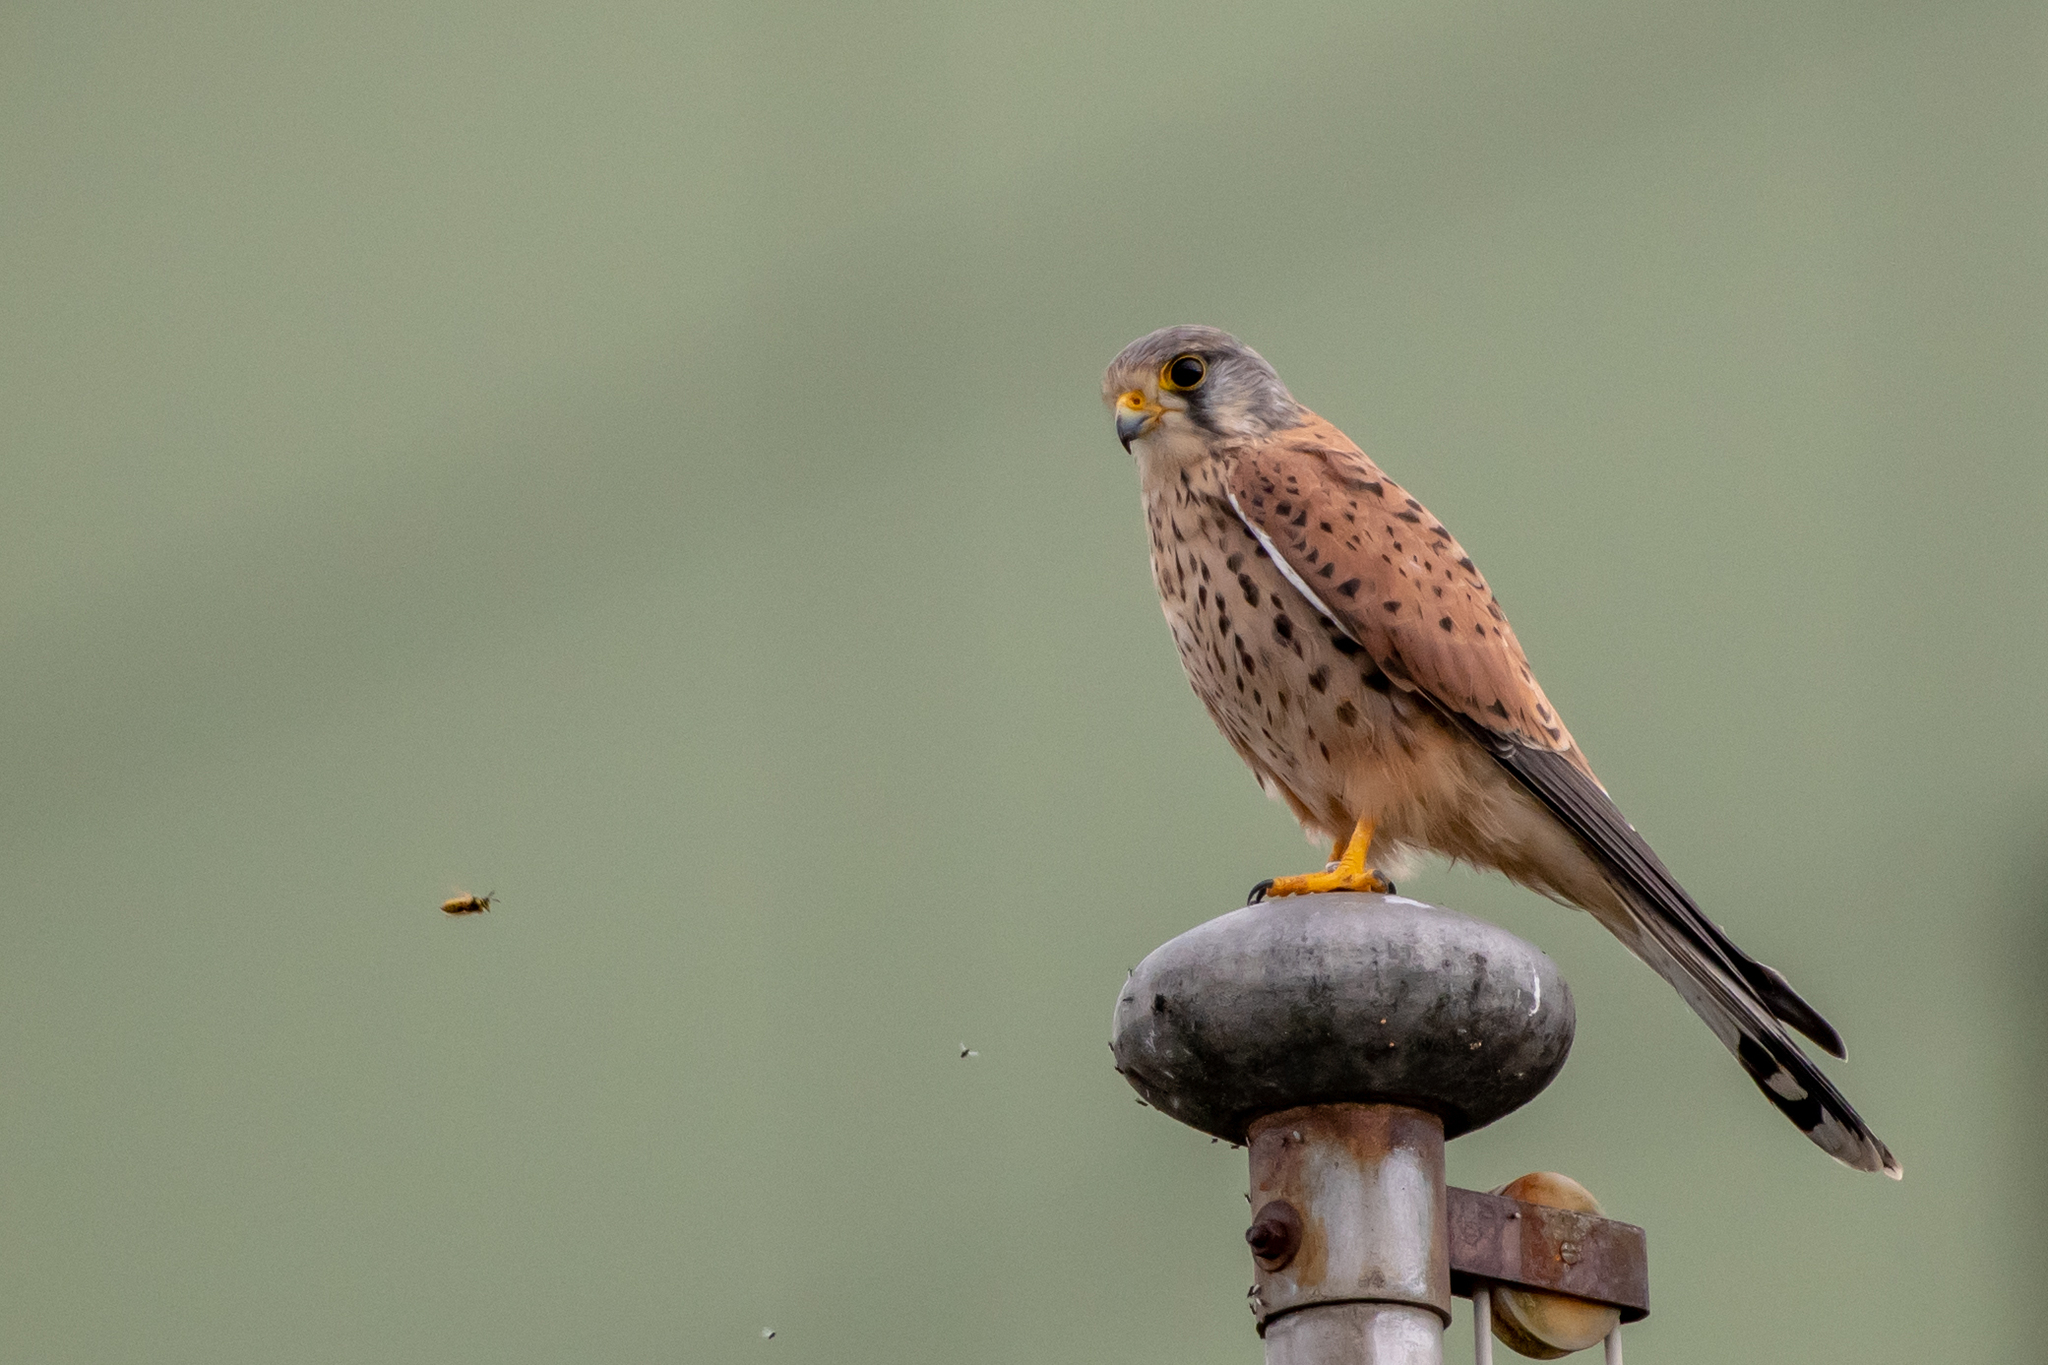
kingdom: Animalia
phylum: Chordata
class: Aves
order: Falconiformes
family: Falconidae
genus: Falco
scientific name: Falco tinnunculus
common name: Common kestrel
